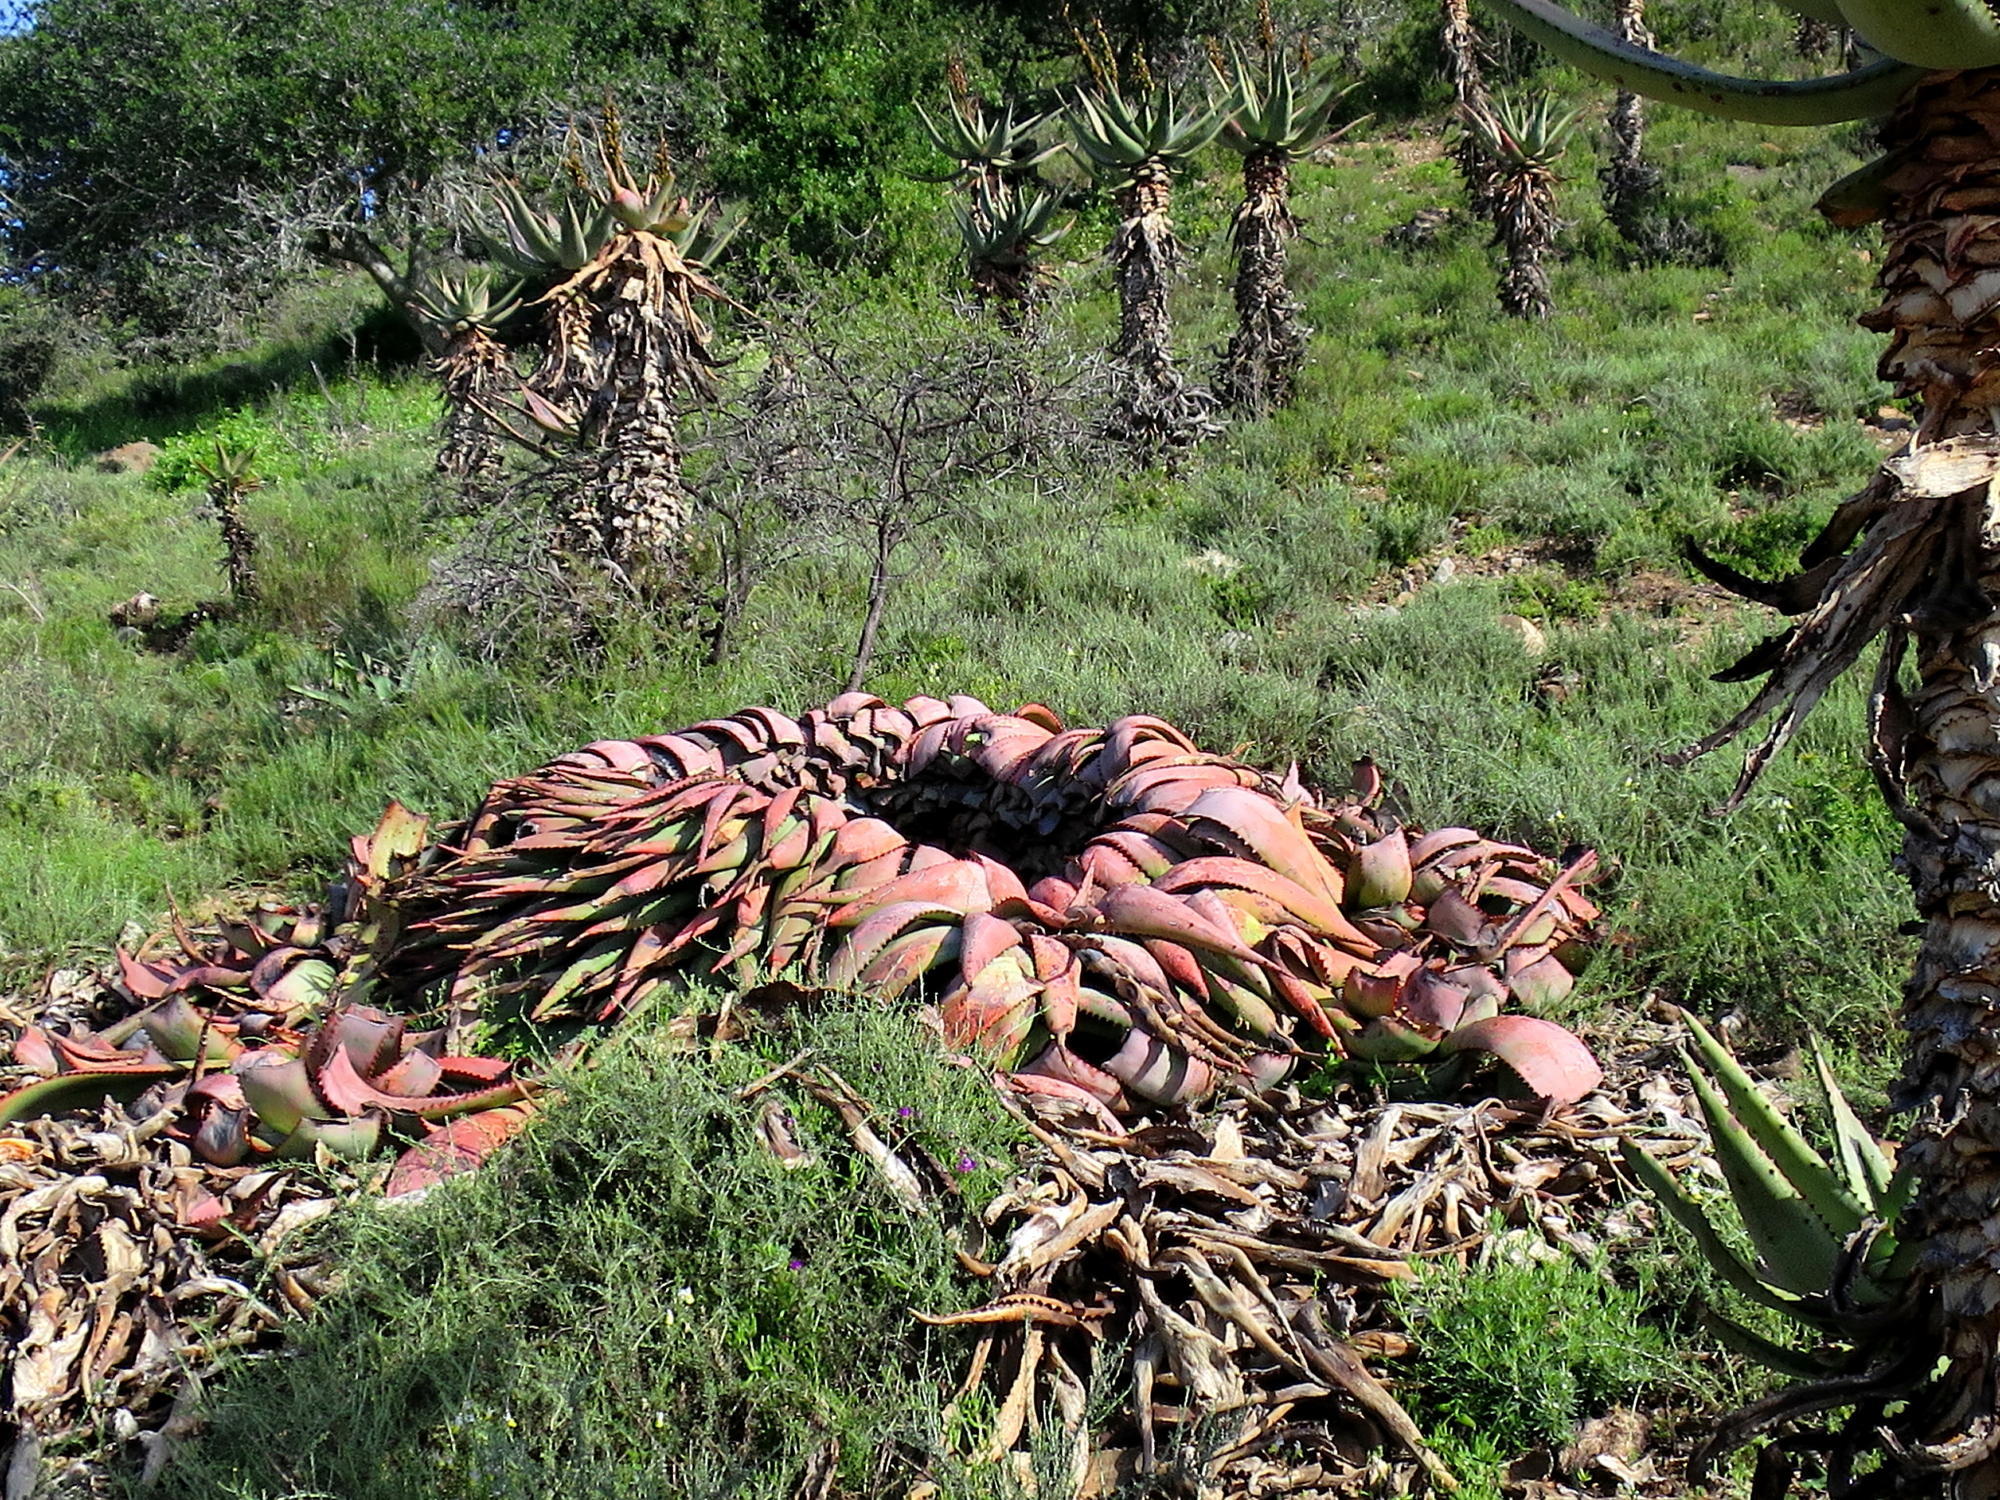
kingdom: Plantae
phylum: Tracheophyta
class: Liliopsida
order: Asparagales
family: Asphodelaceae
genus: Aloe
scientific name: Aloe ferox
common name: Bitter aloe
